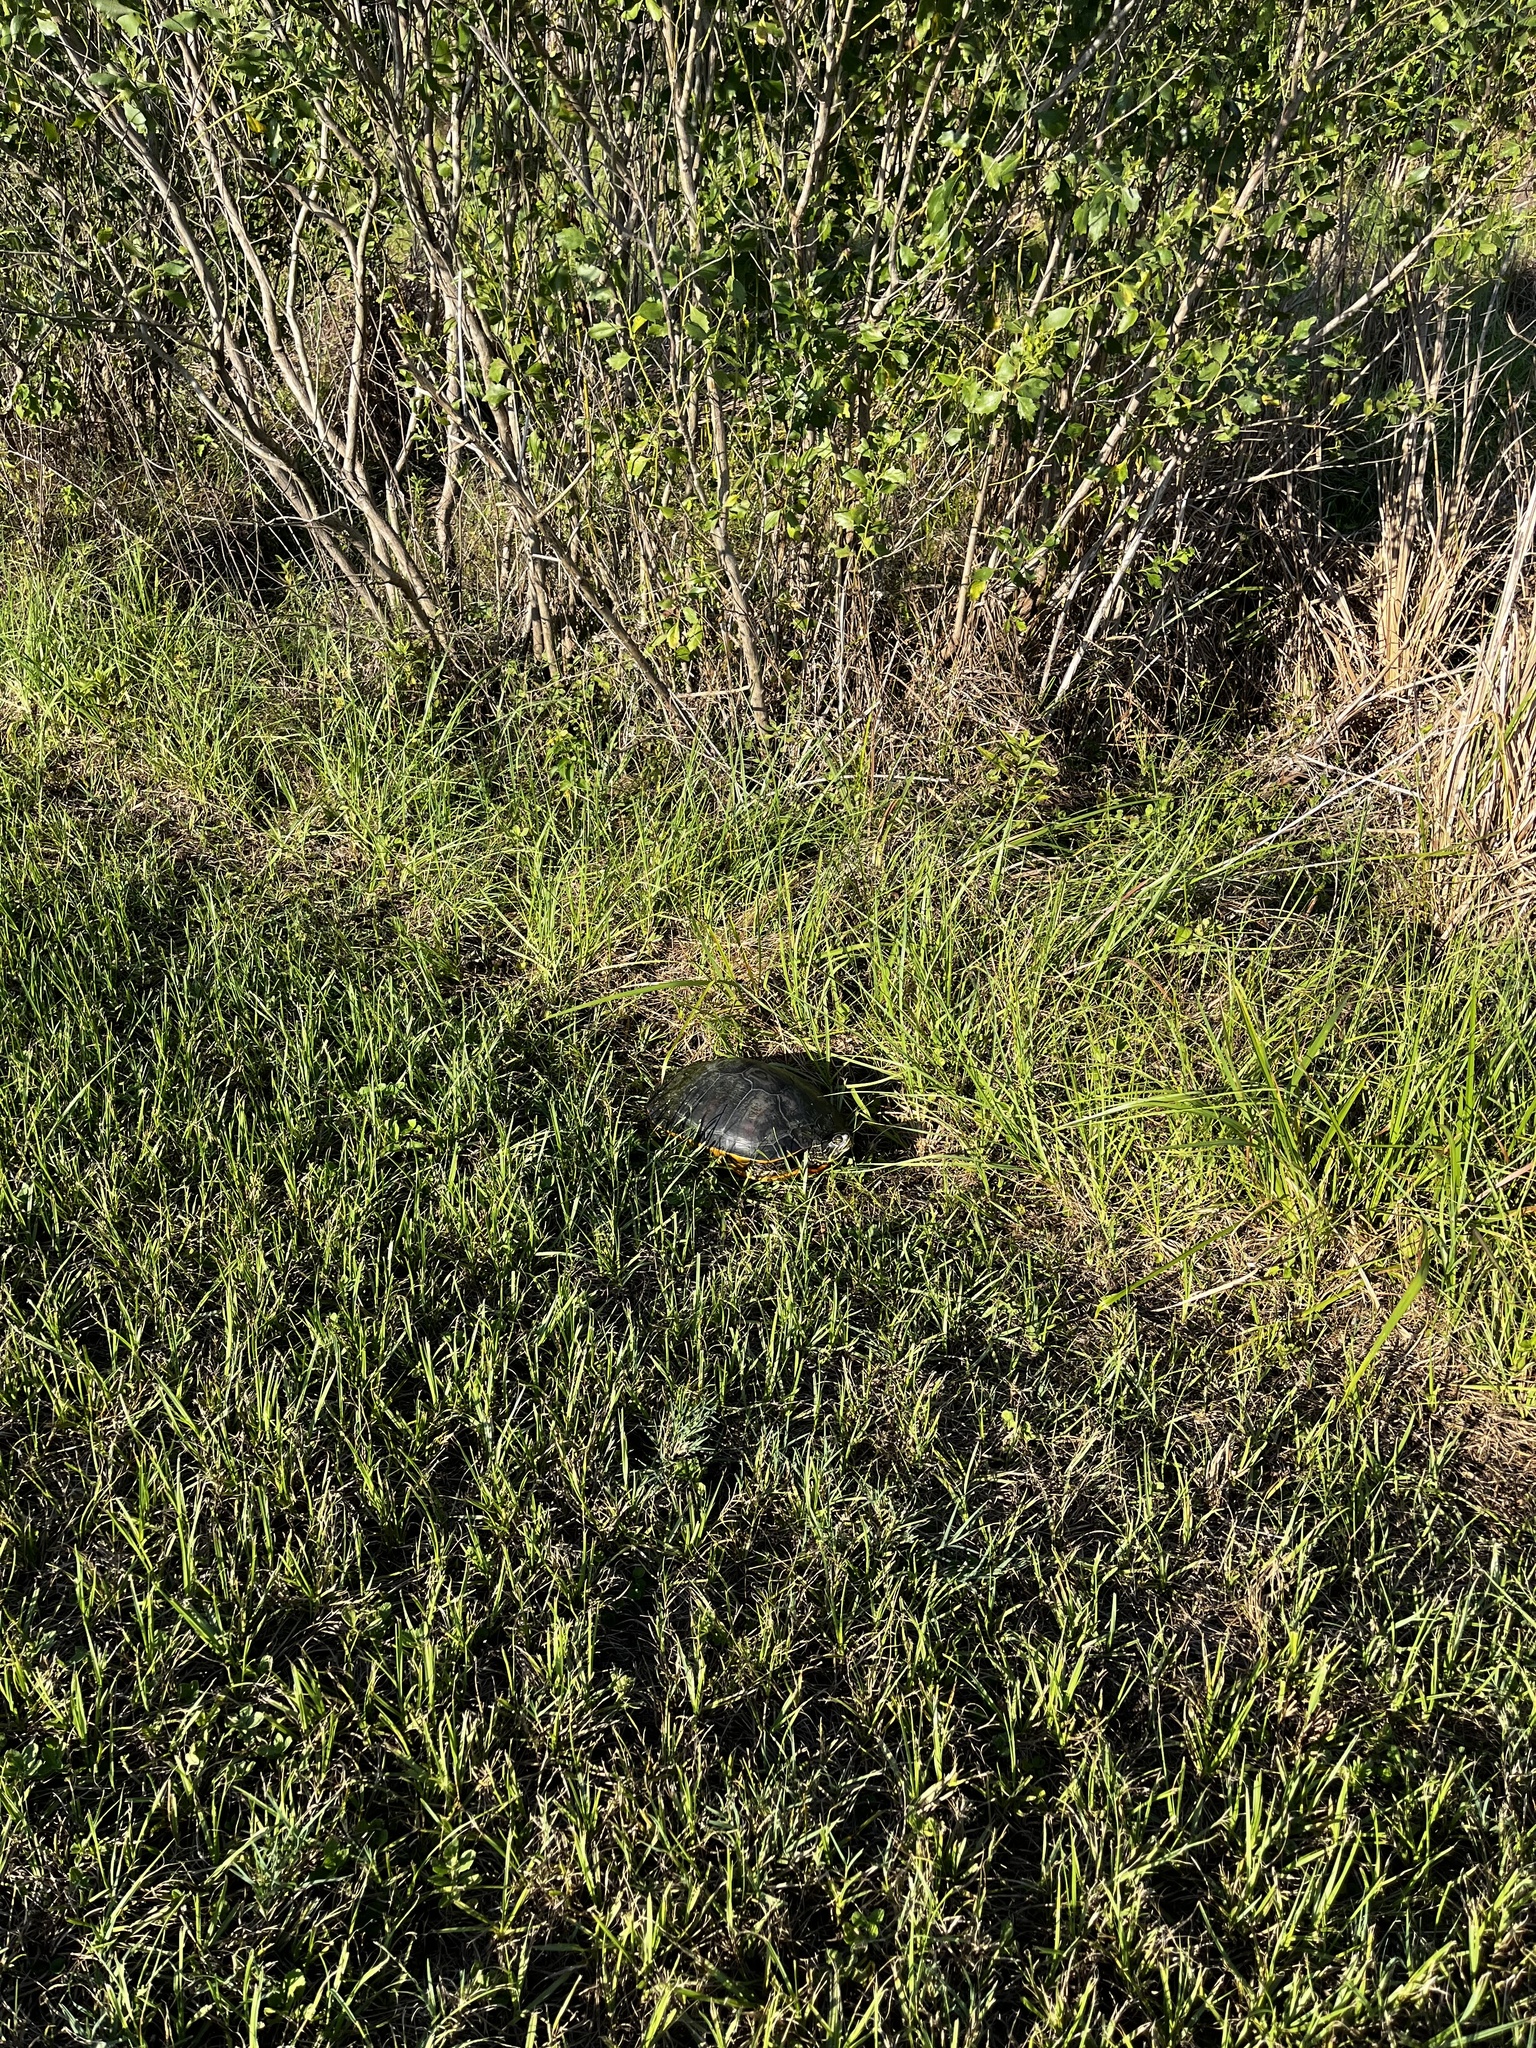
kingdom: Animalia
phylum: Chordata
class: Testudines
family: Emydidae
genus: Trachemys
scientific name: Trachemys scripta
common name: Slider
